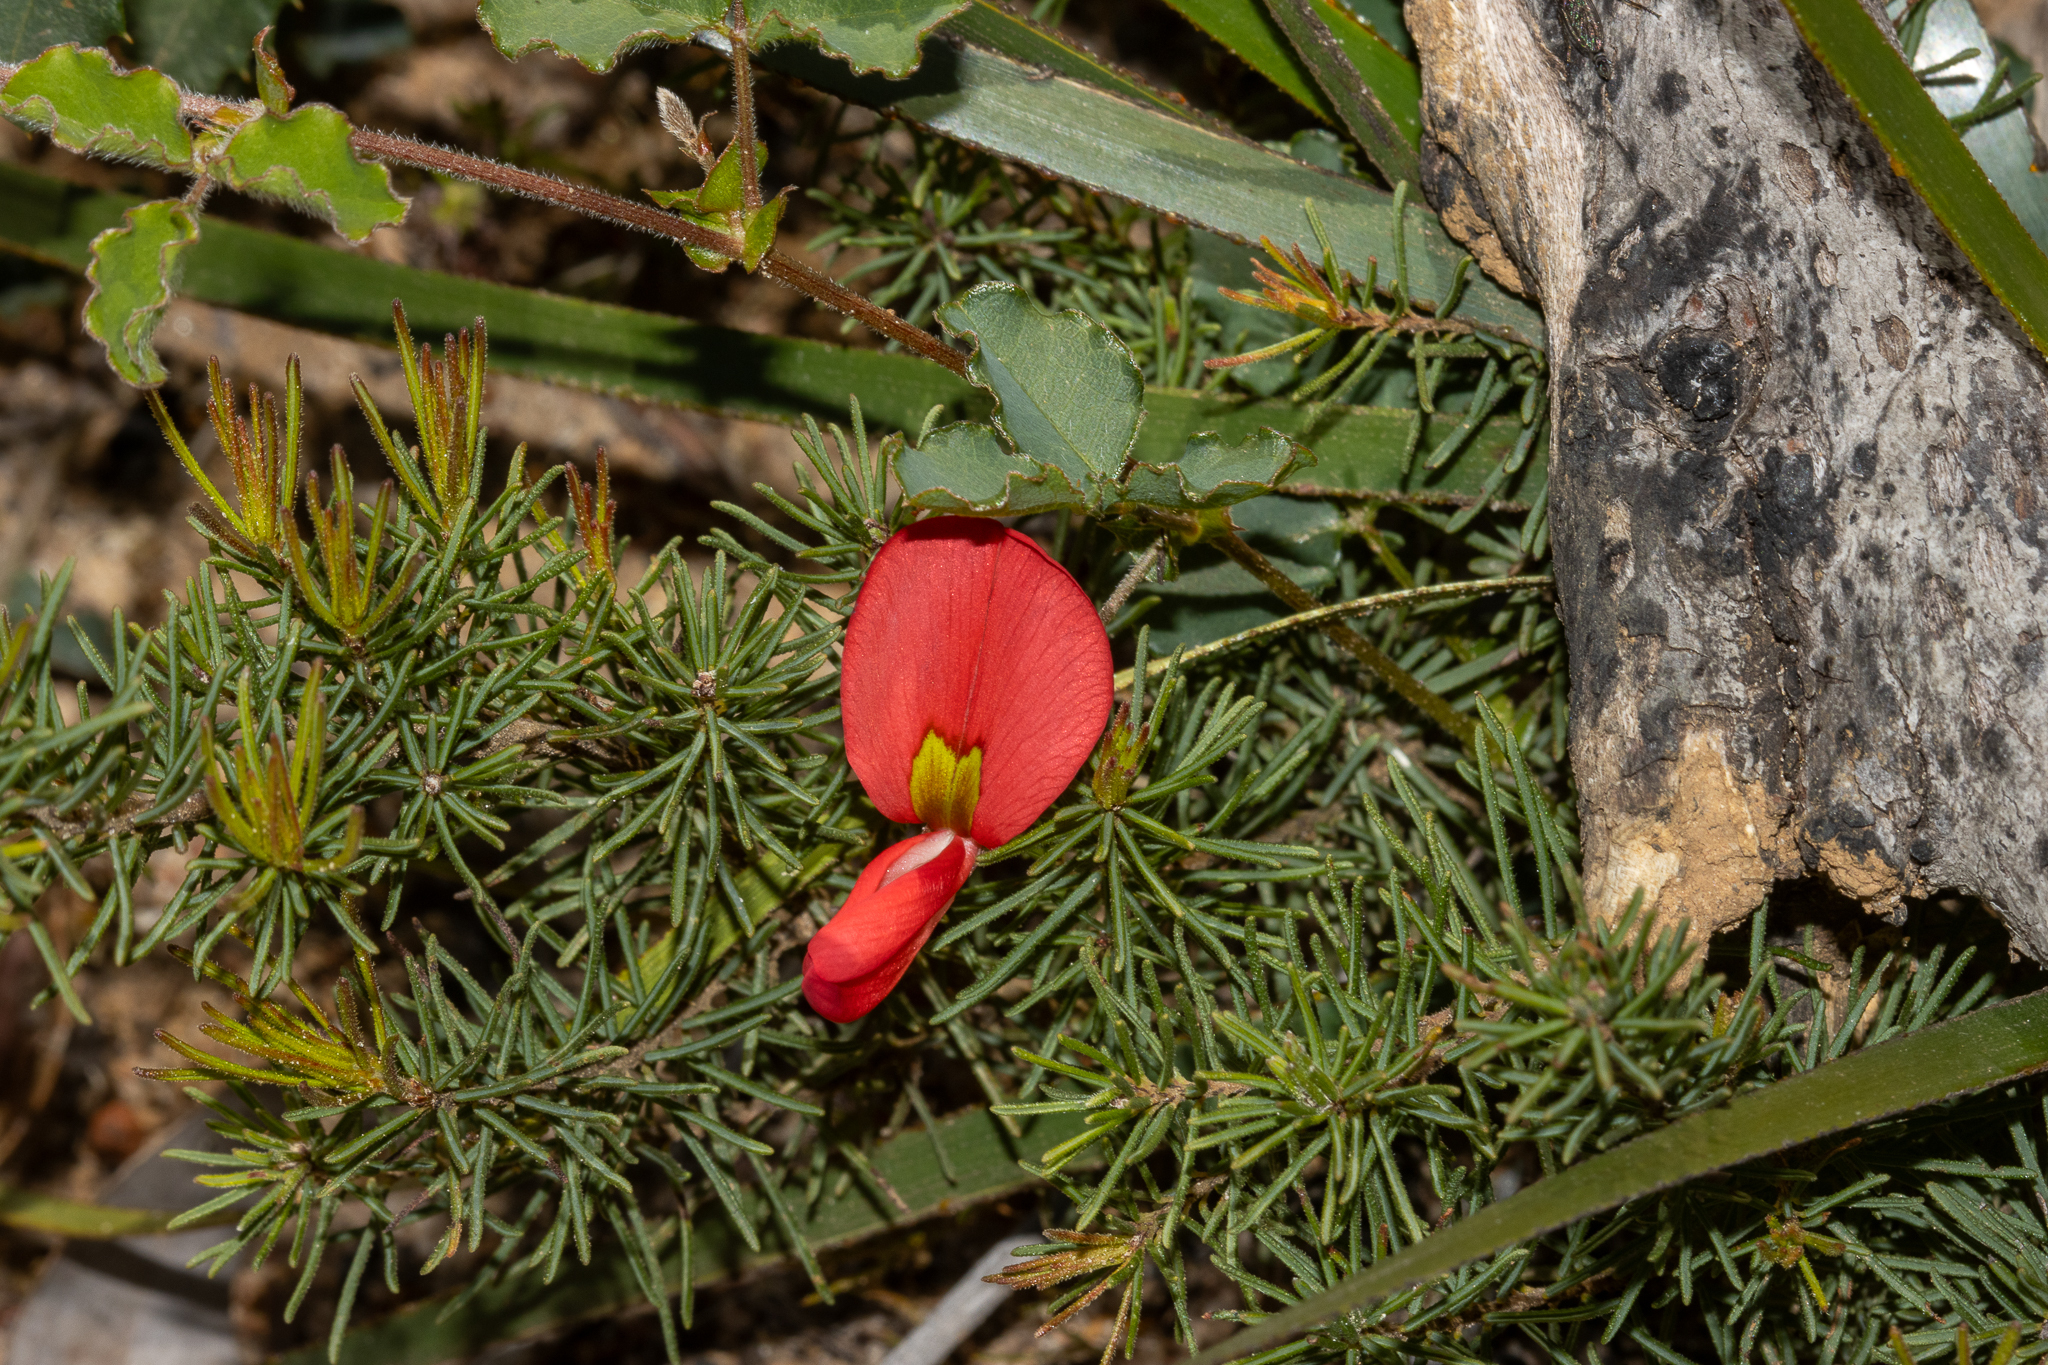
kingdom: Plantae
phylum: Tracheophyta
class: Magnoliopsida
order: Fabales
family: Fabaceae
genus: Kennedia
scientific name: Kennedia prostrata
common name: Running-postman
